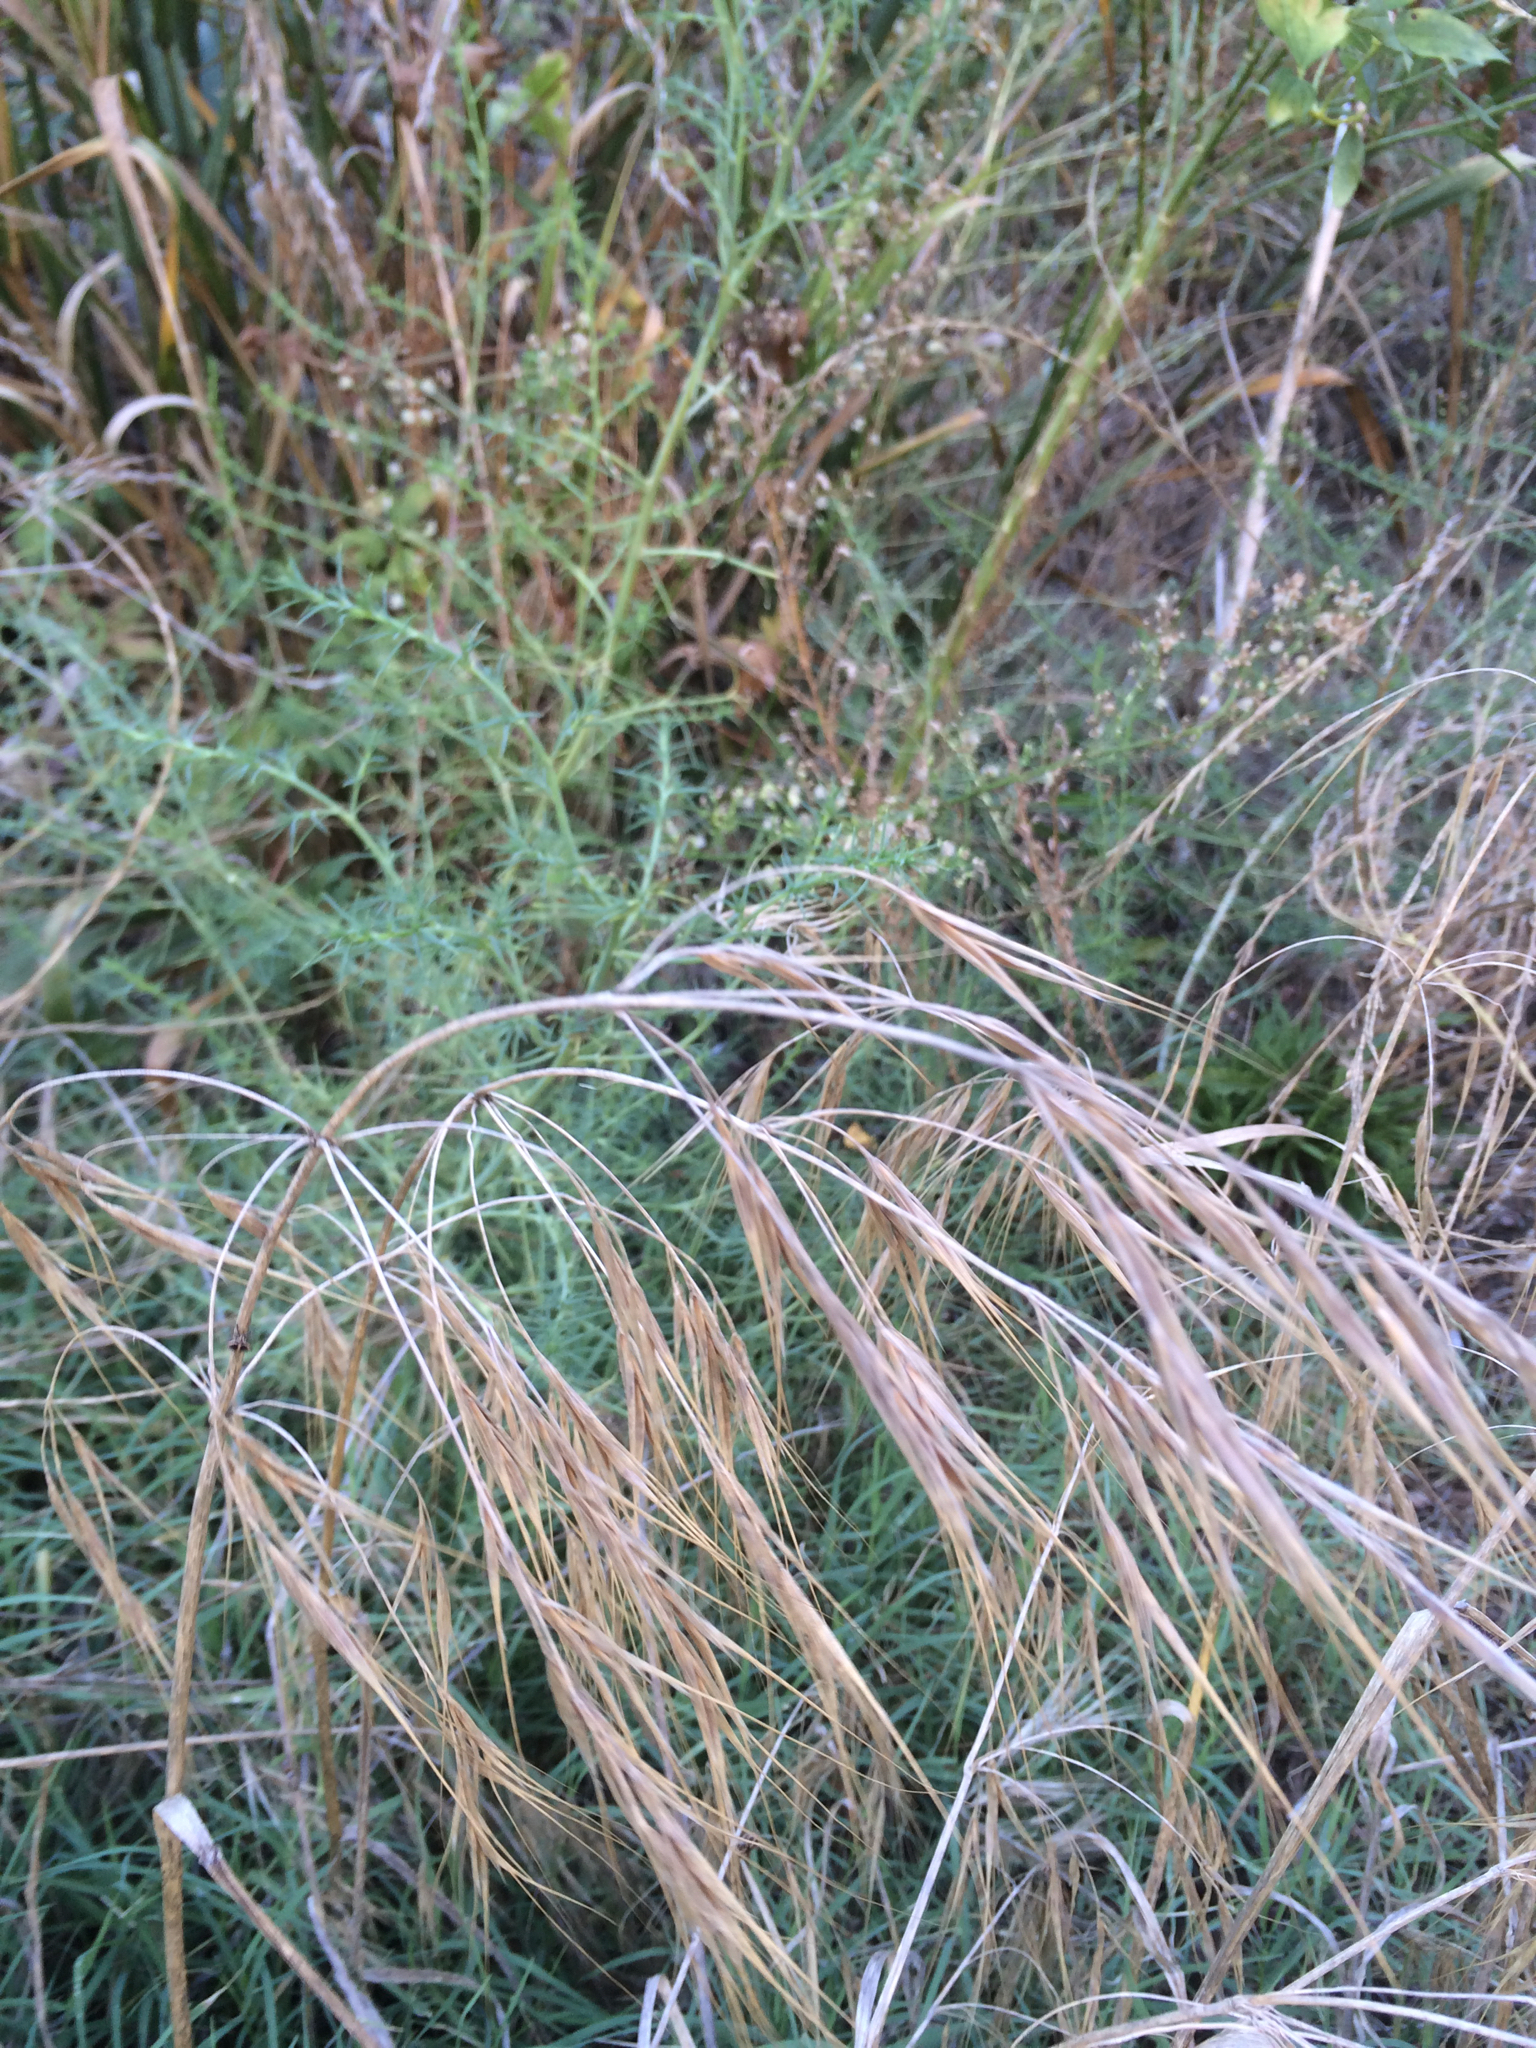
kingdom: Plantae
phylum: Tracheophyta
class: Liliopsida
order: Poales
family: Poaceae
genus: Bromus
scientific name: Bromus diandrus
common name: Ripgut brome
